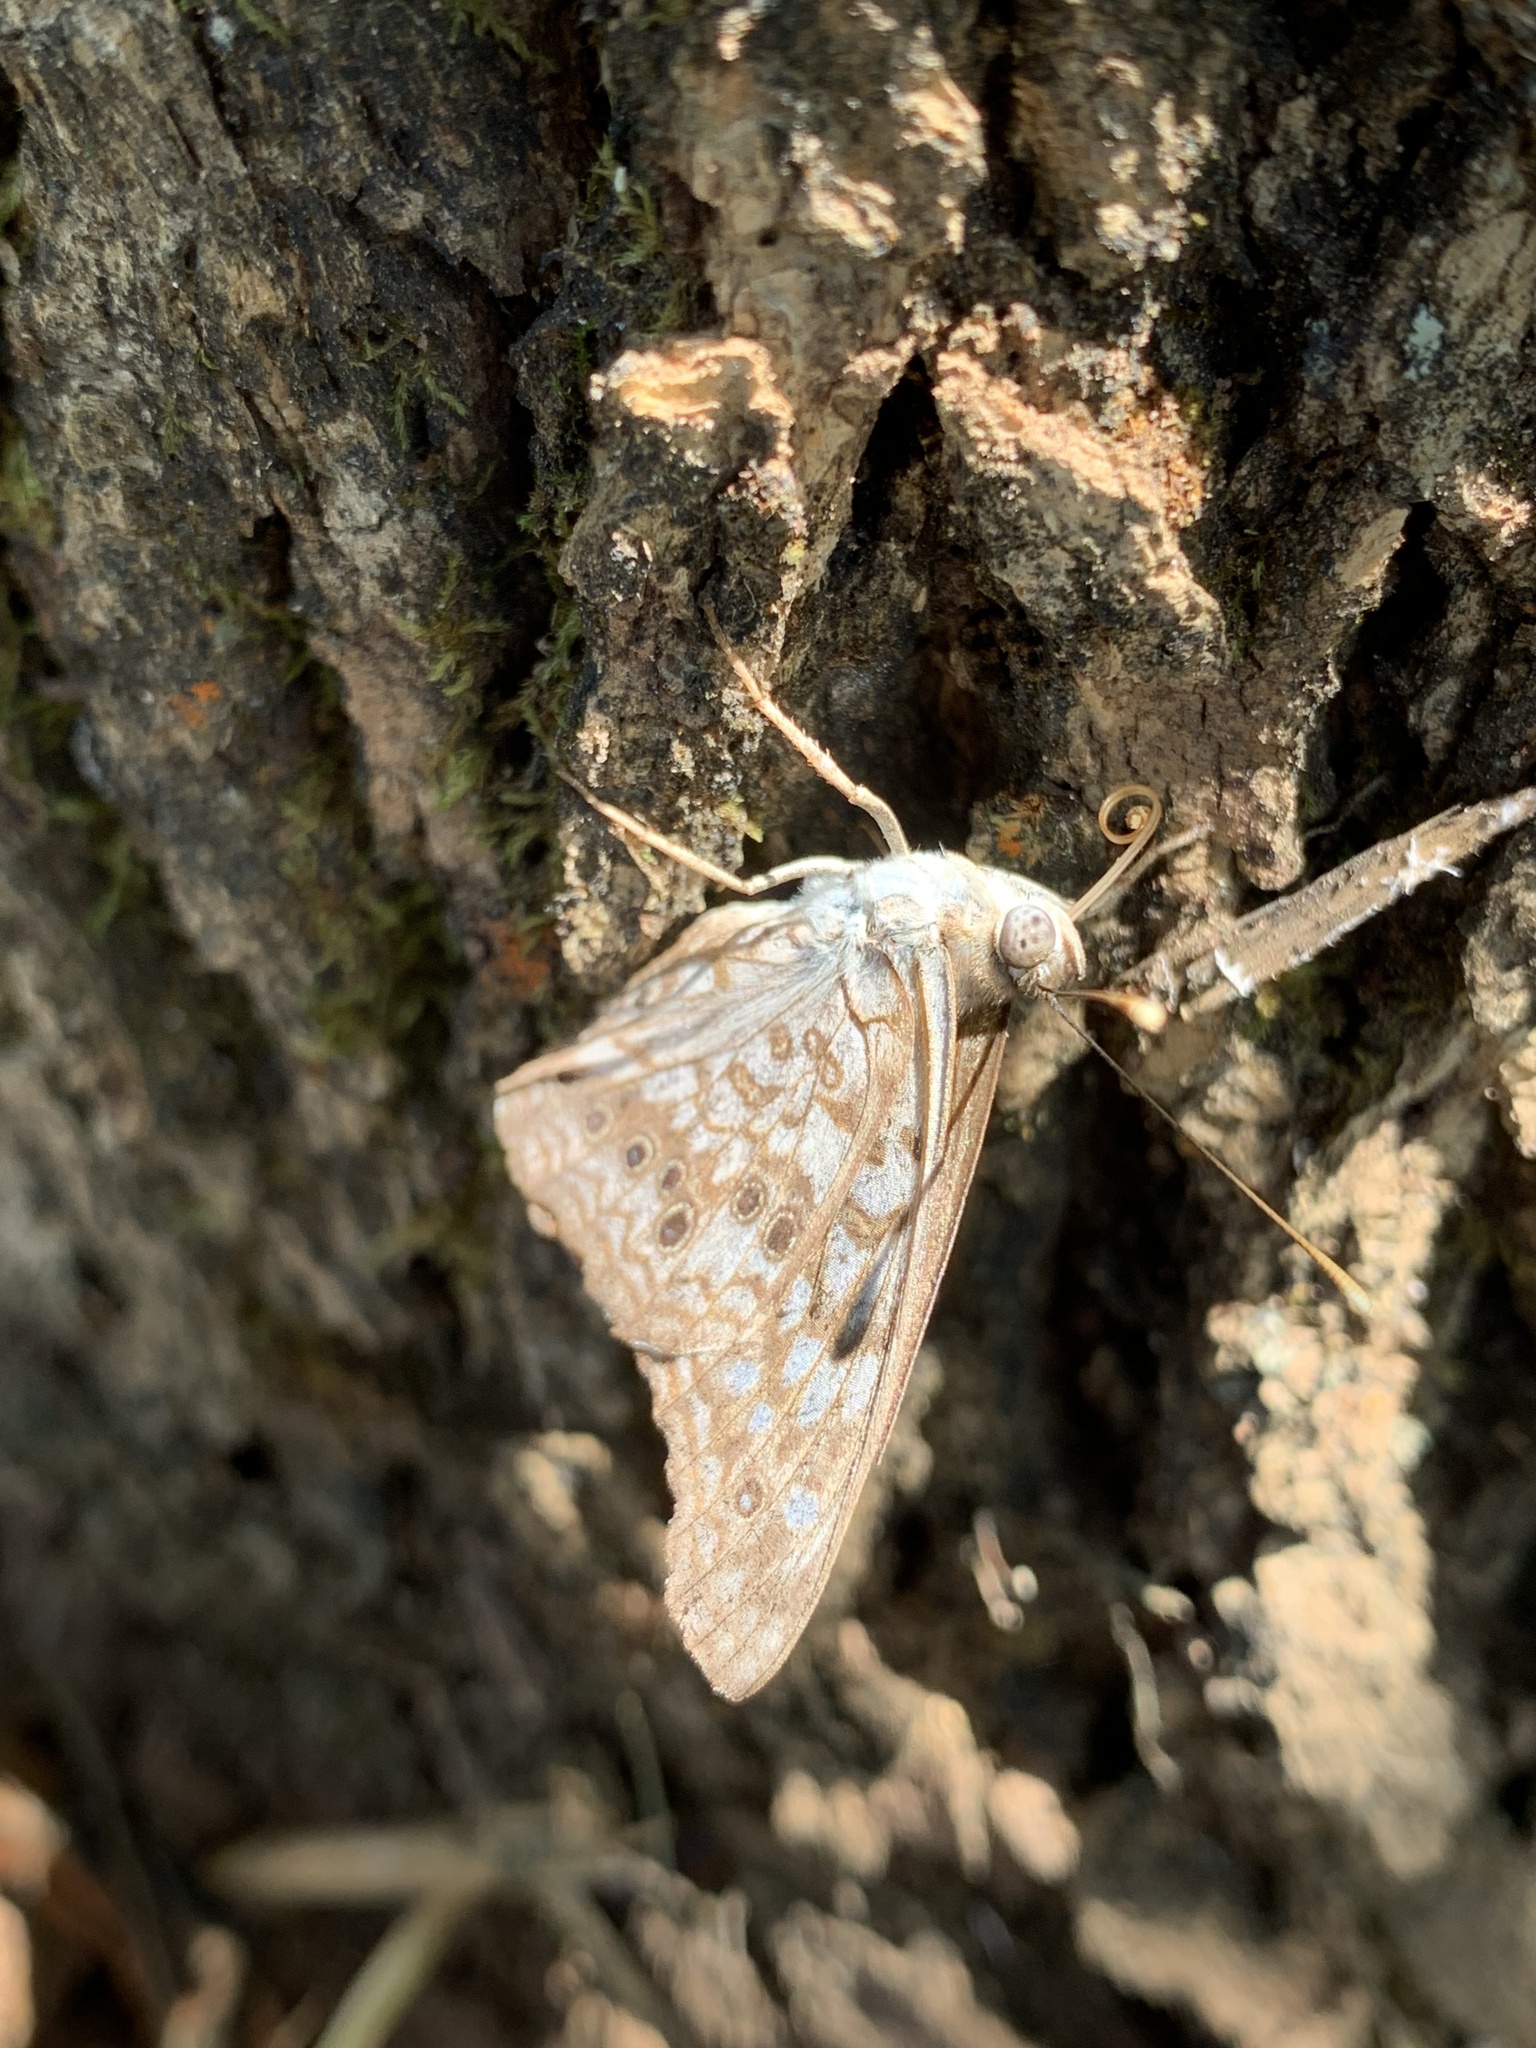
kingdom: Animalia
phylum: Arthropoda
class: Insecta
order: Lepidoptera
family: Nymphalidae
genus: Asterocampa
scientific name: Asterocampa celtis
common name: Hackberry emperor
